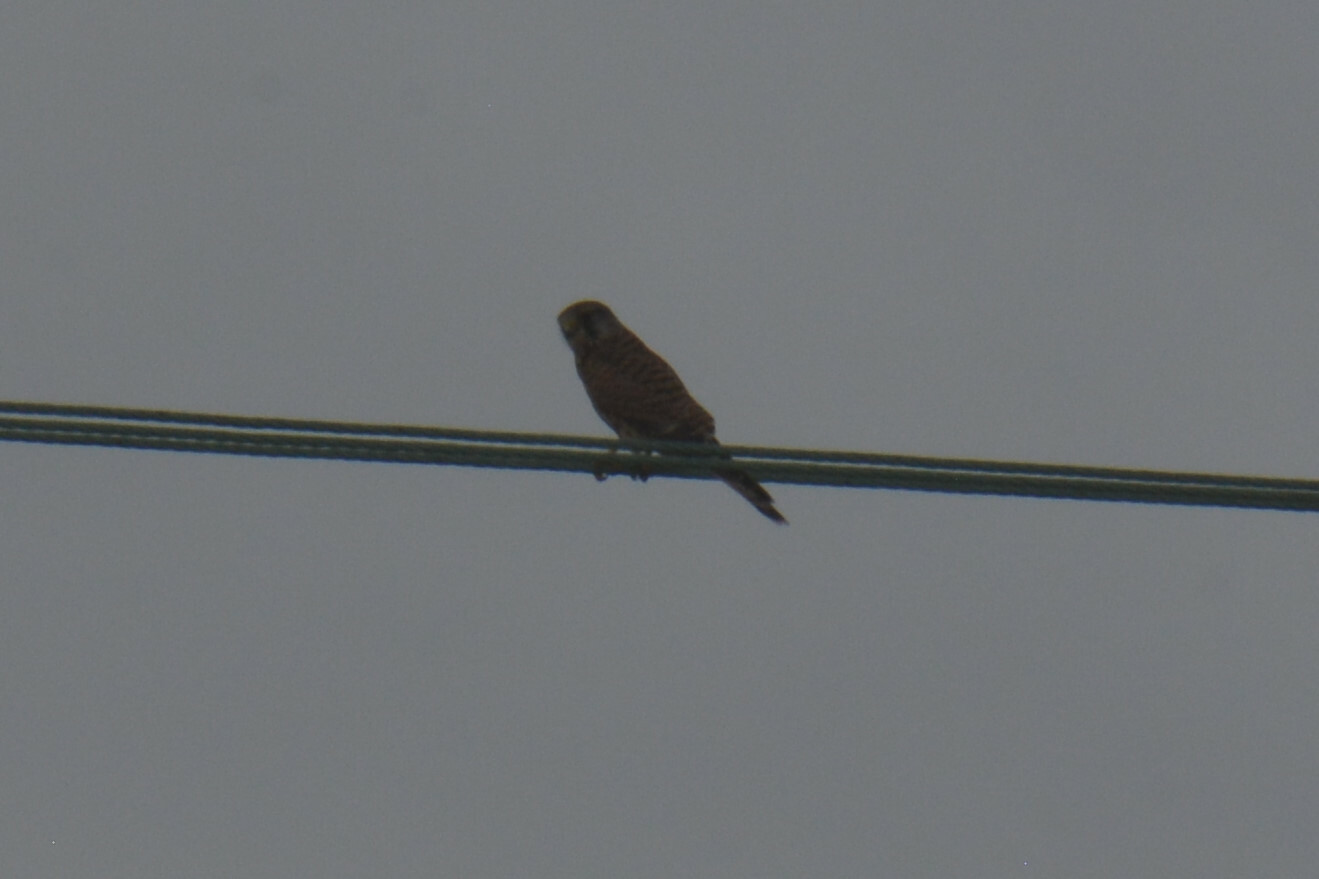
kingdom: Animalia
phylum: Chordata
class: Aves
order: Falconiformes
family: Falconidae
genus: Falco
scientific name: Falco tinnunculus
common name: Common kestrel
